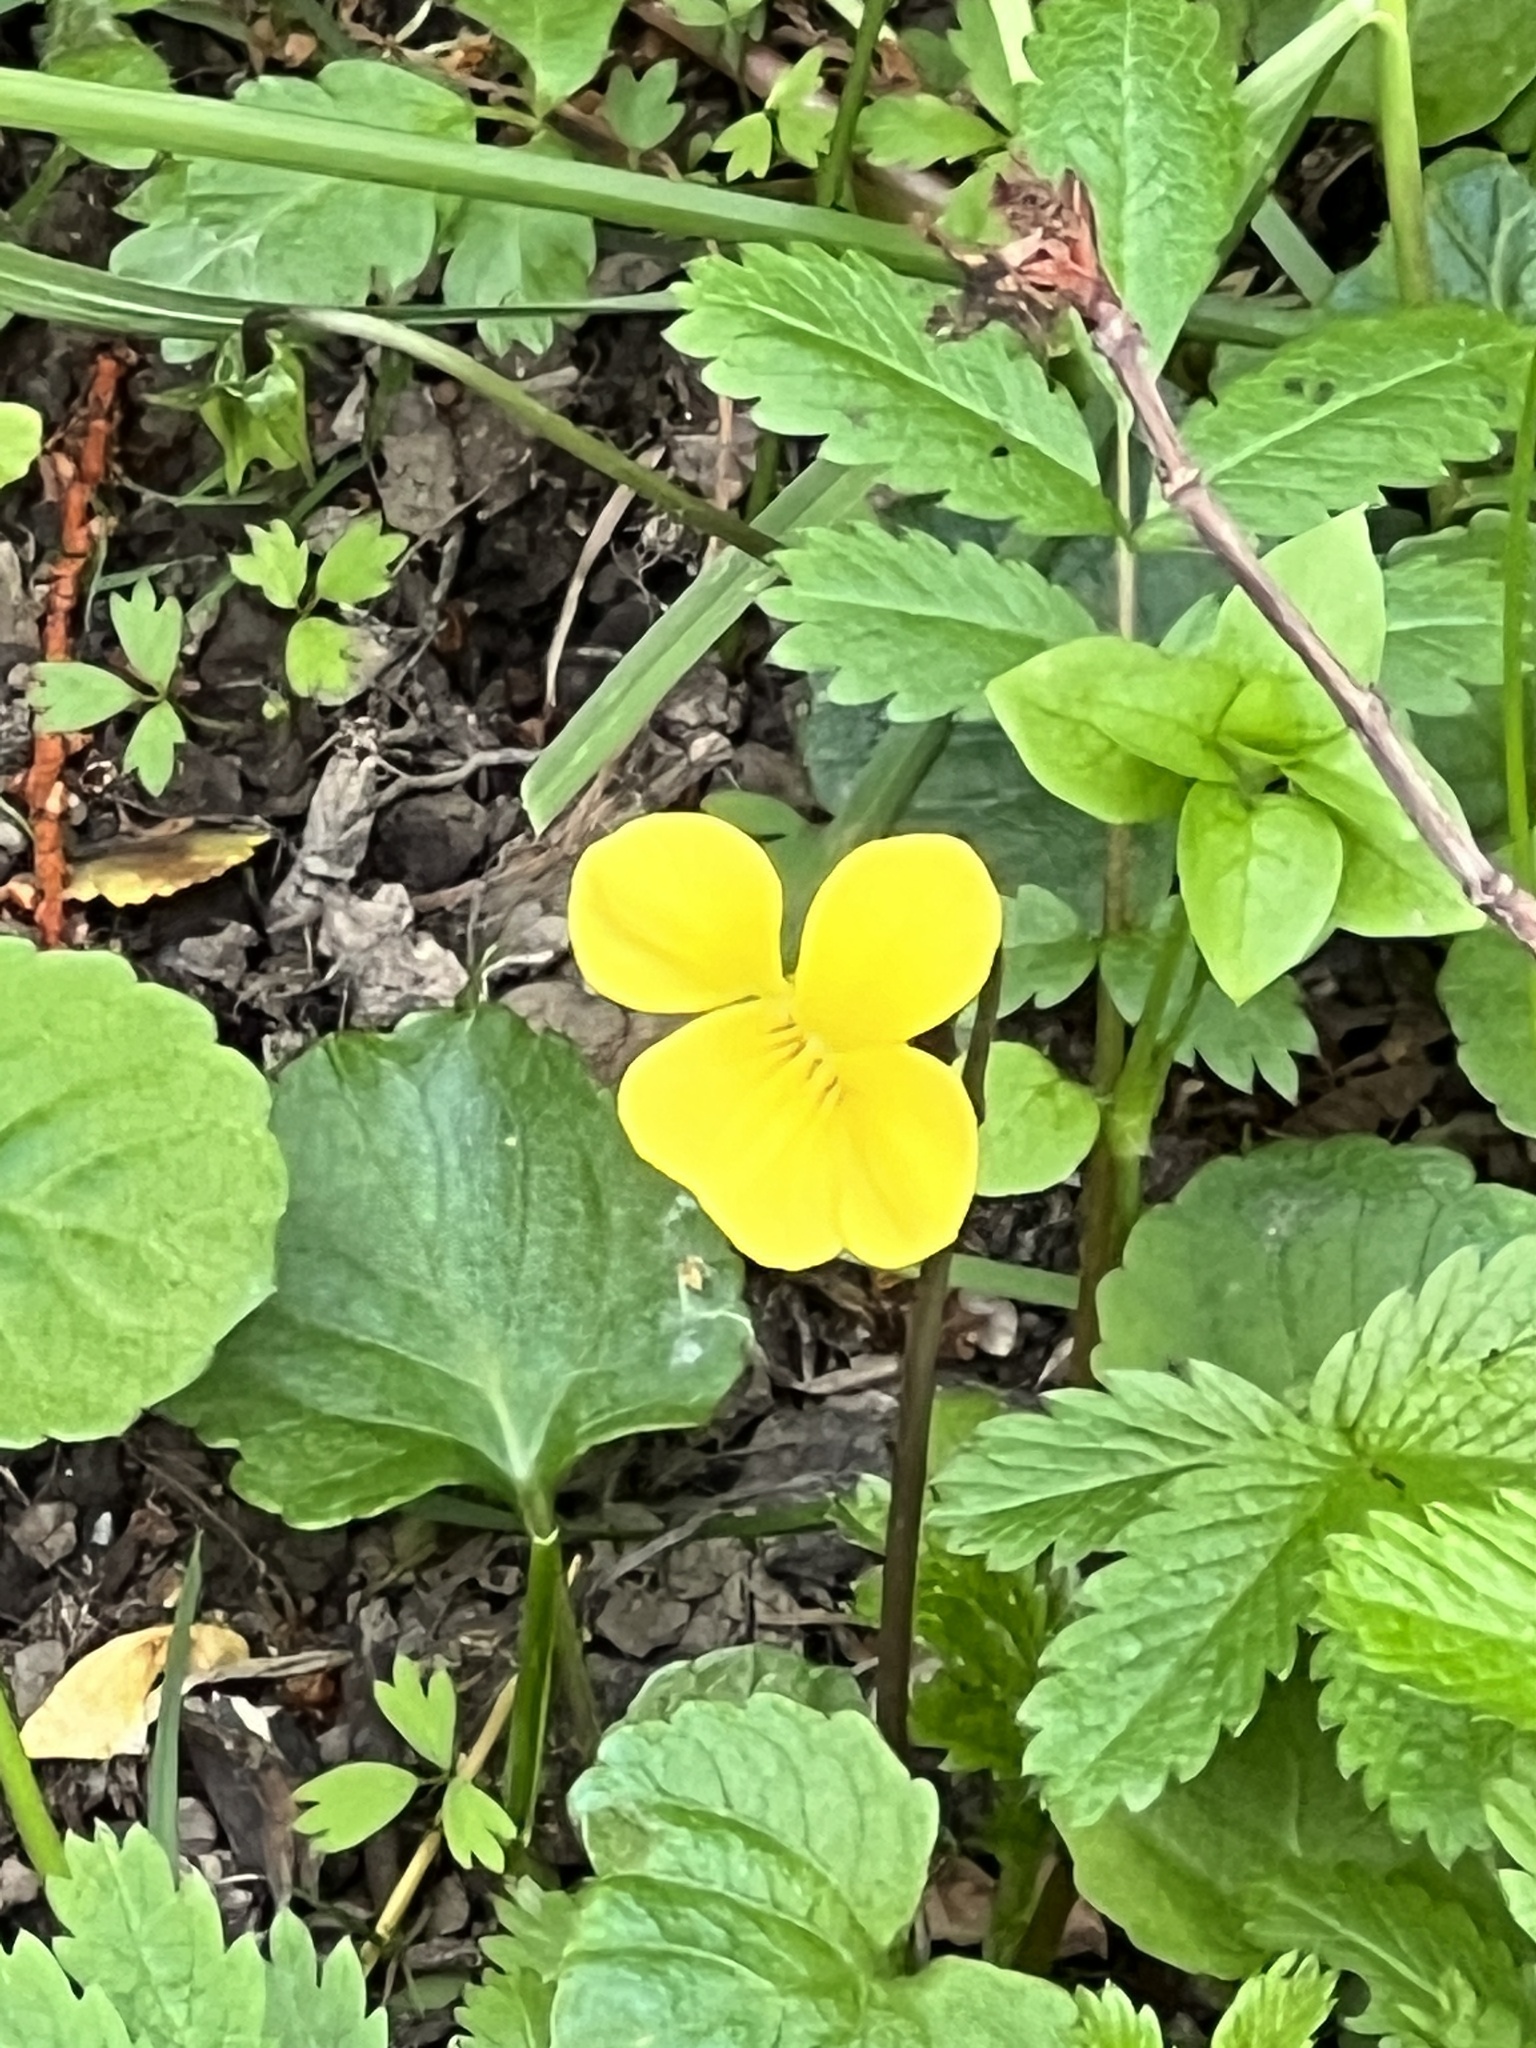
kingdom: Plantae
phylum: Tracheophyta
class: Magnoliopsida
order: Malpighiales
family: Violaceae
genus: Viola
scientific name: Viola reichei
